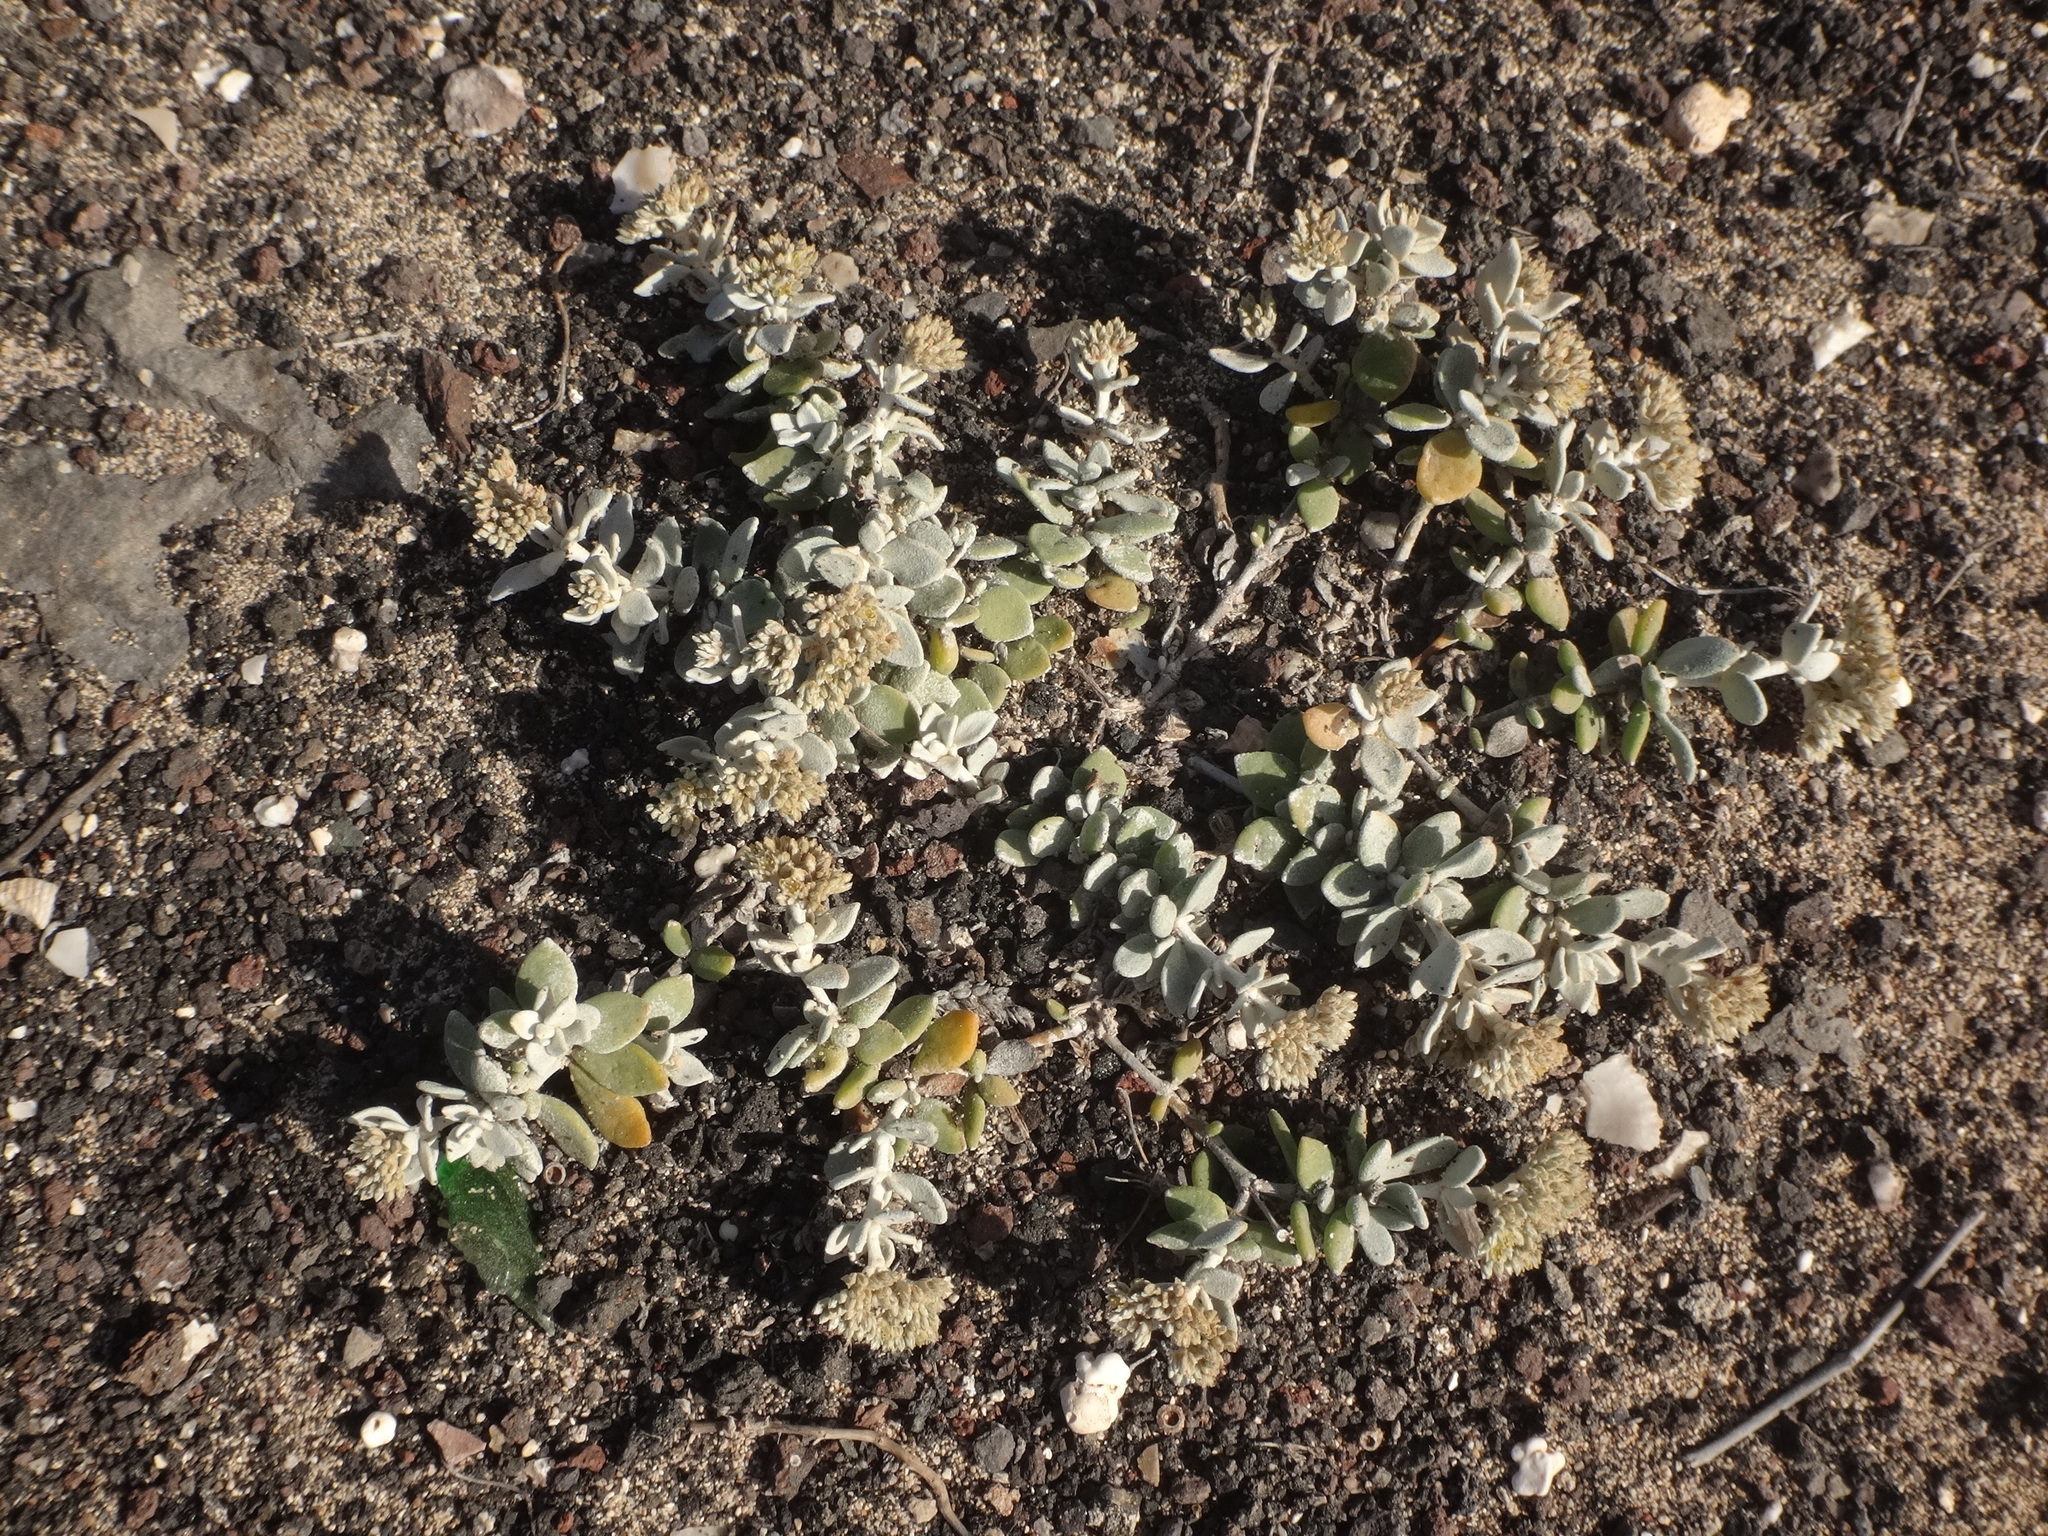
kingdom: Plantae
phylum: Tracheophyta
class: Magnoliopsida
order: Caryophyllales
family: Caryophyllaceae
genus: Polycarpaea
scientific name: Polycarpaea nivea
